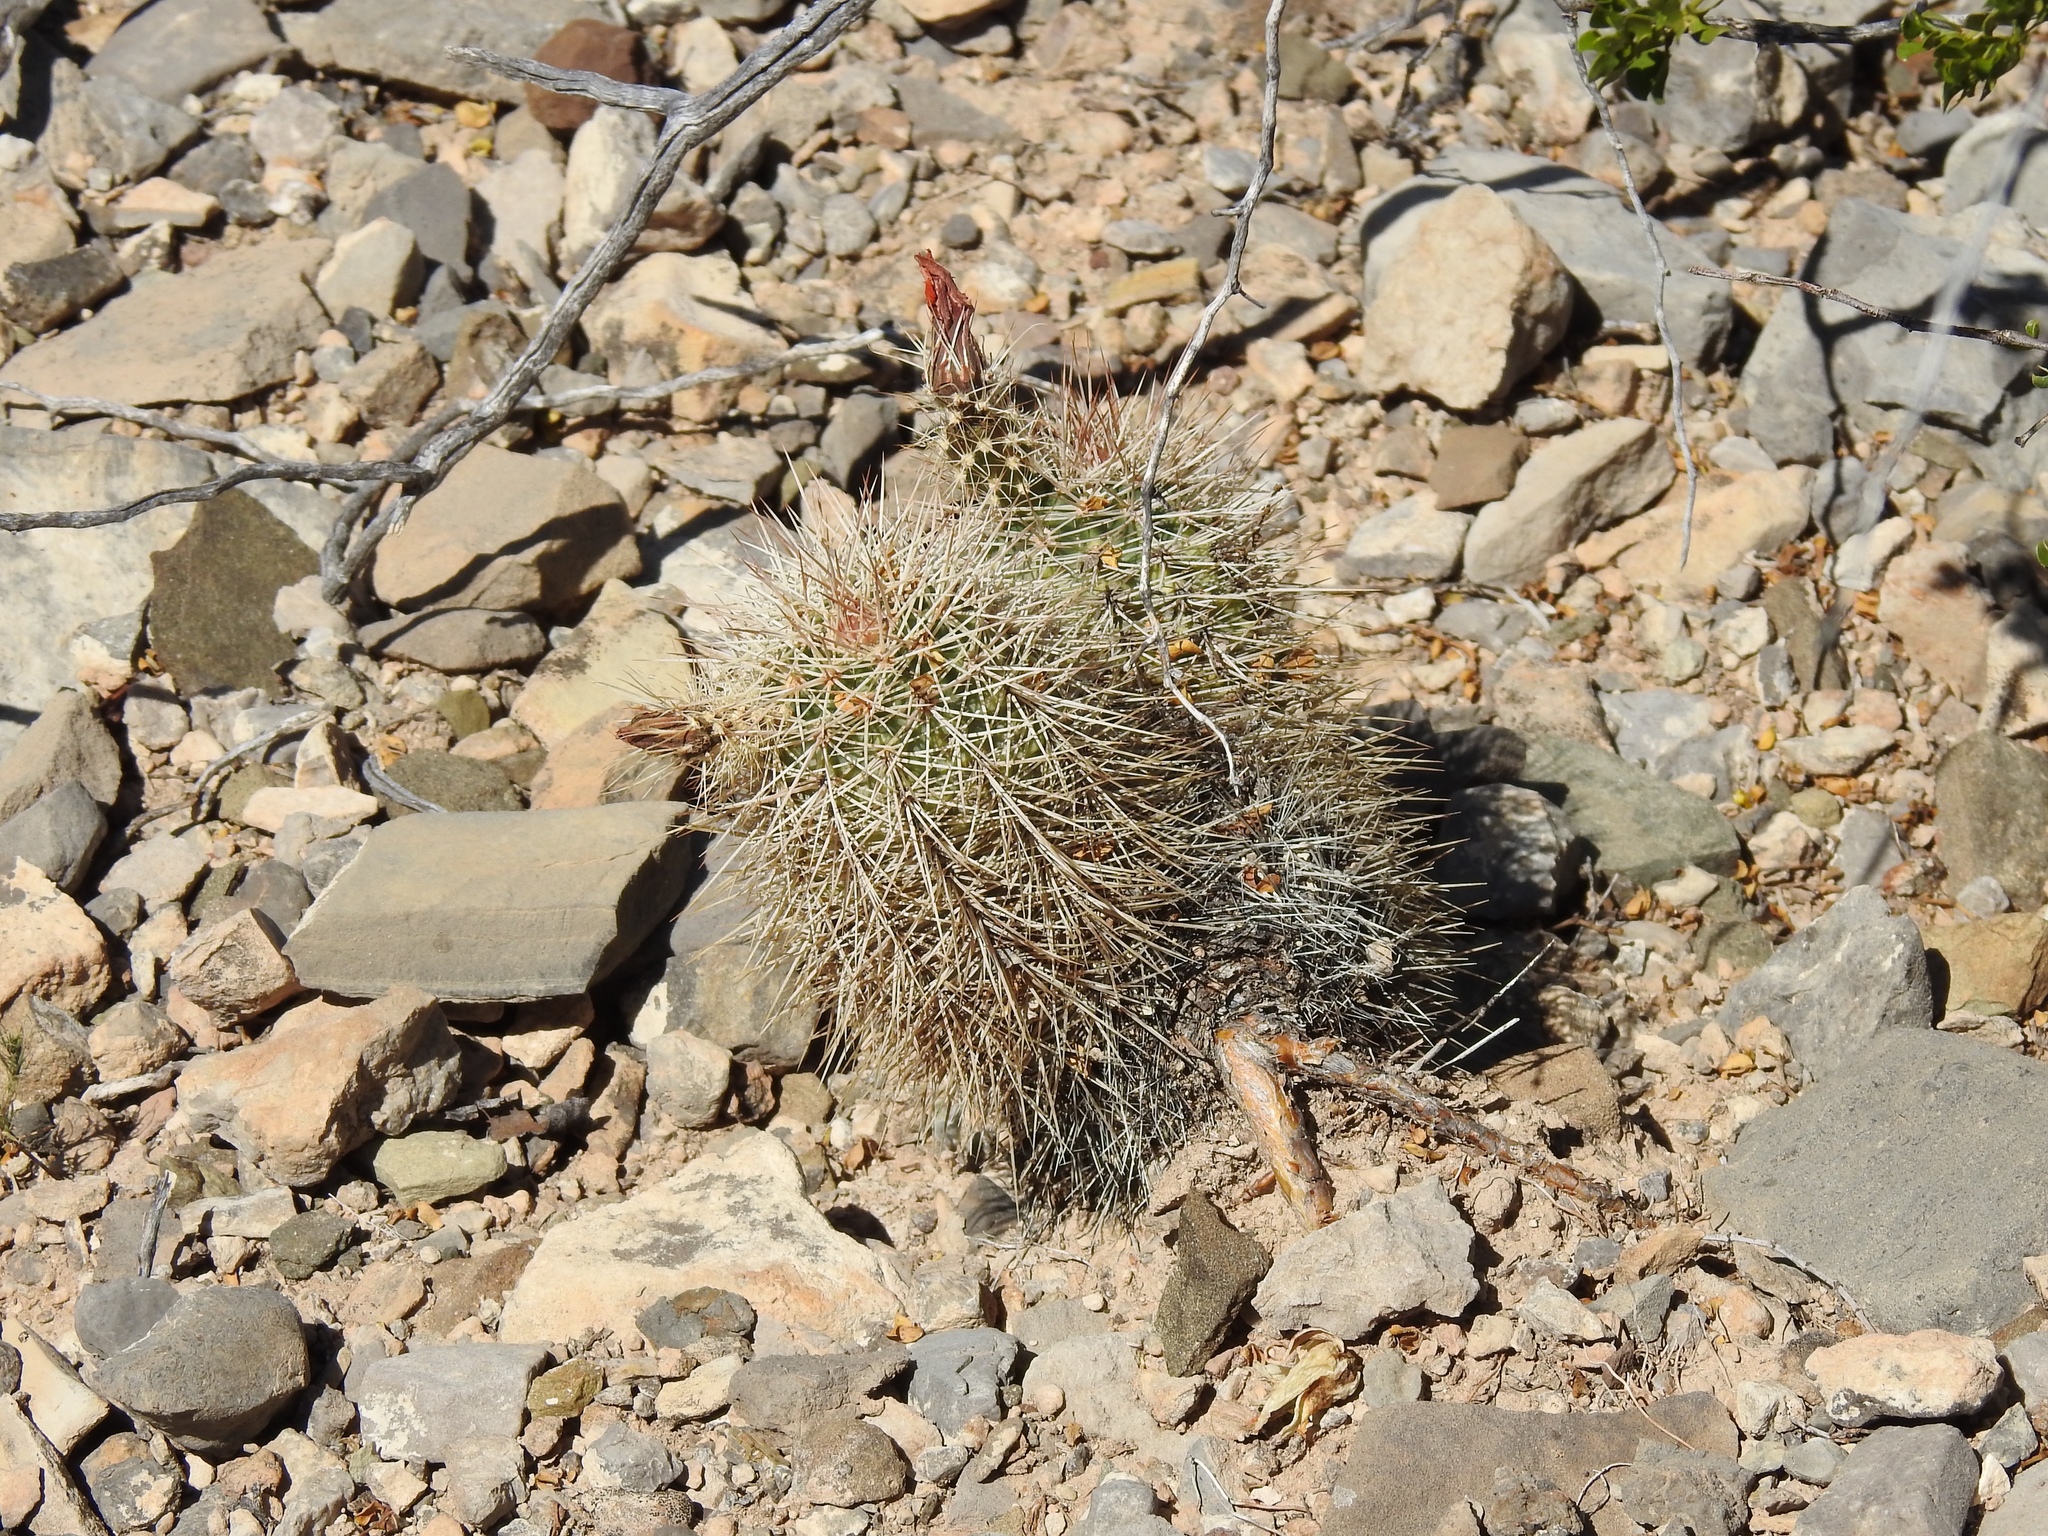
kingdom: Plantae
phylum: Tracheophyta
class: Magnoliopsida
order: Caryophyllales
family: Cactaceae
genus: Echinocereus
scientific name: Echinocereus roetteri
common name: Lloyd's hedgehog cactus
